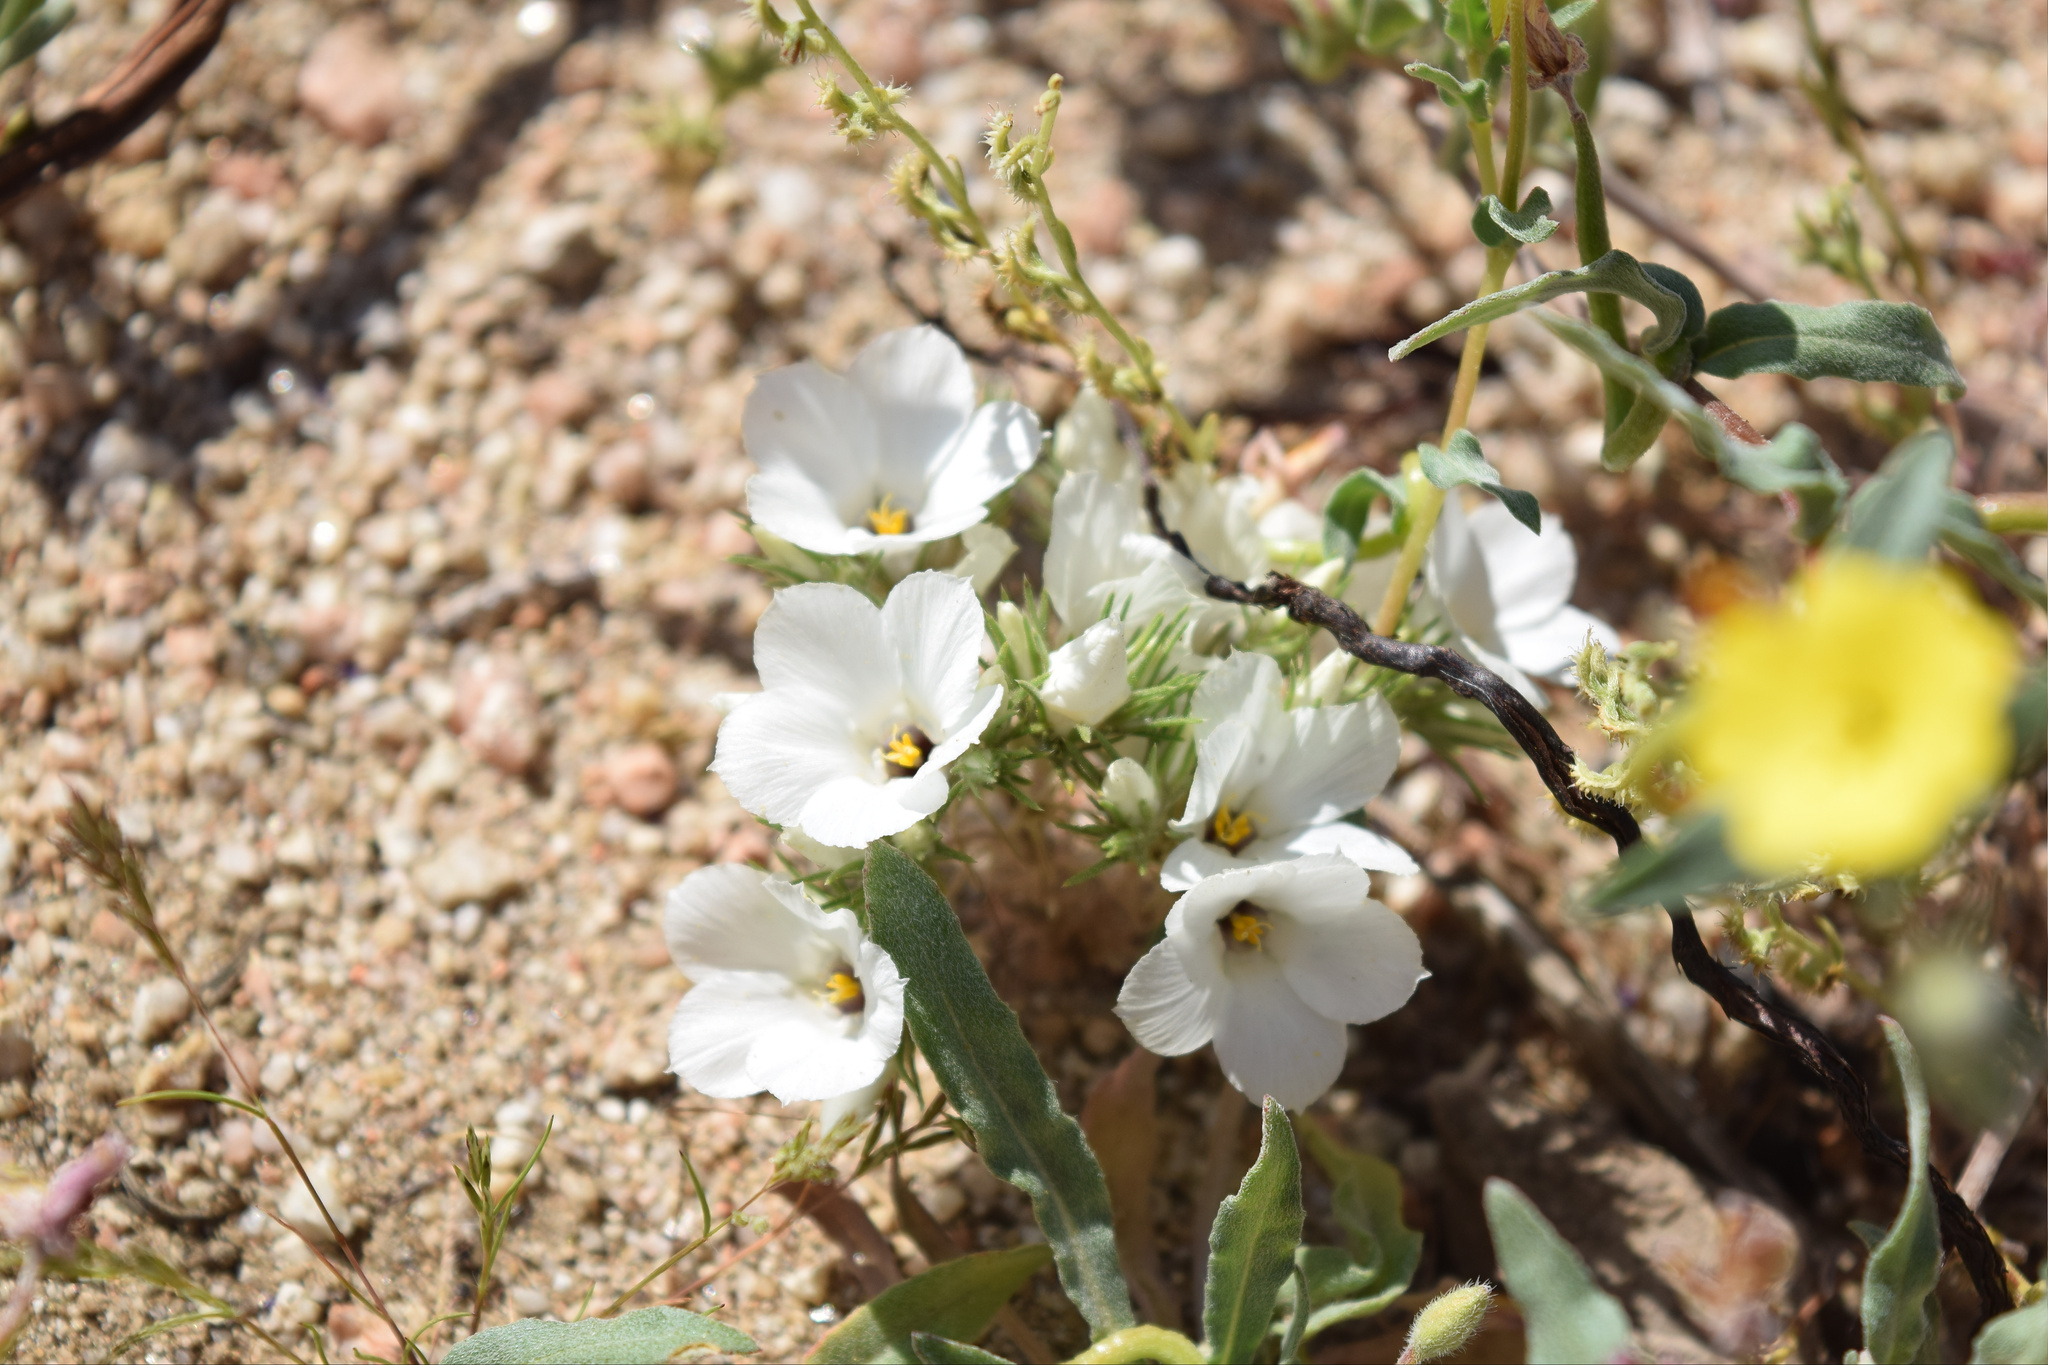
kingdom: Plantae
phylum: Tracheophyta
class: Magnoliopsida
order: Ericales
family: Polemoniaceae
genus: Linanthus
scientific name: Linanthus parryae
